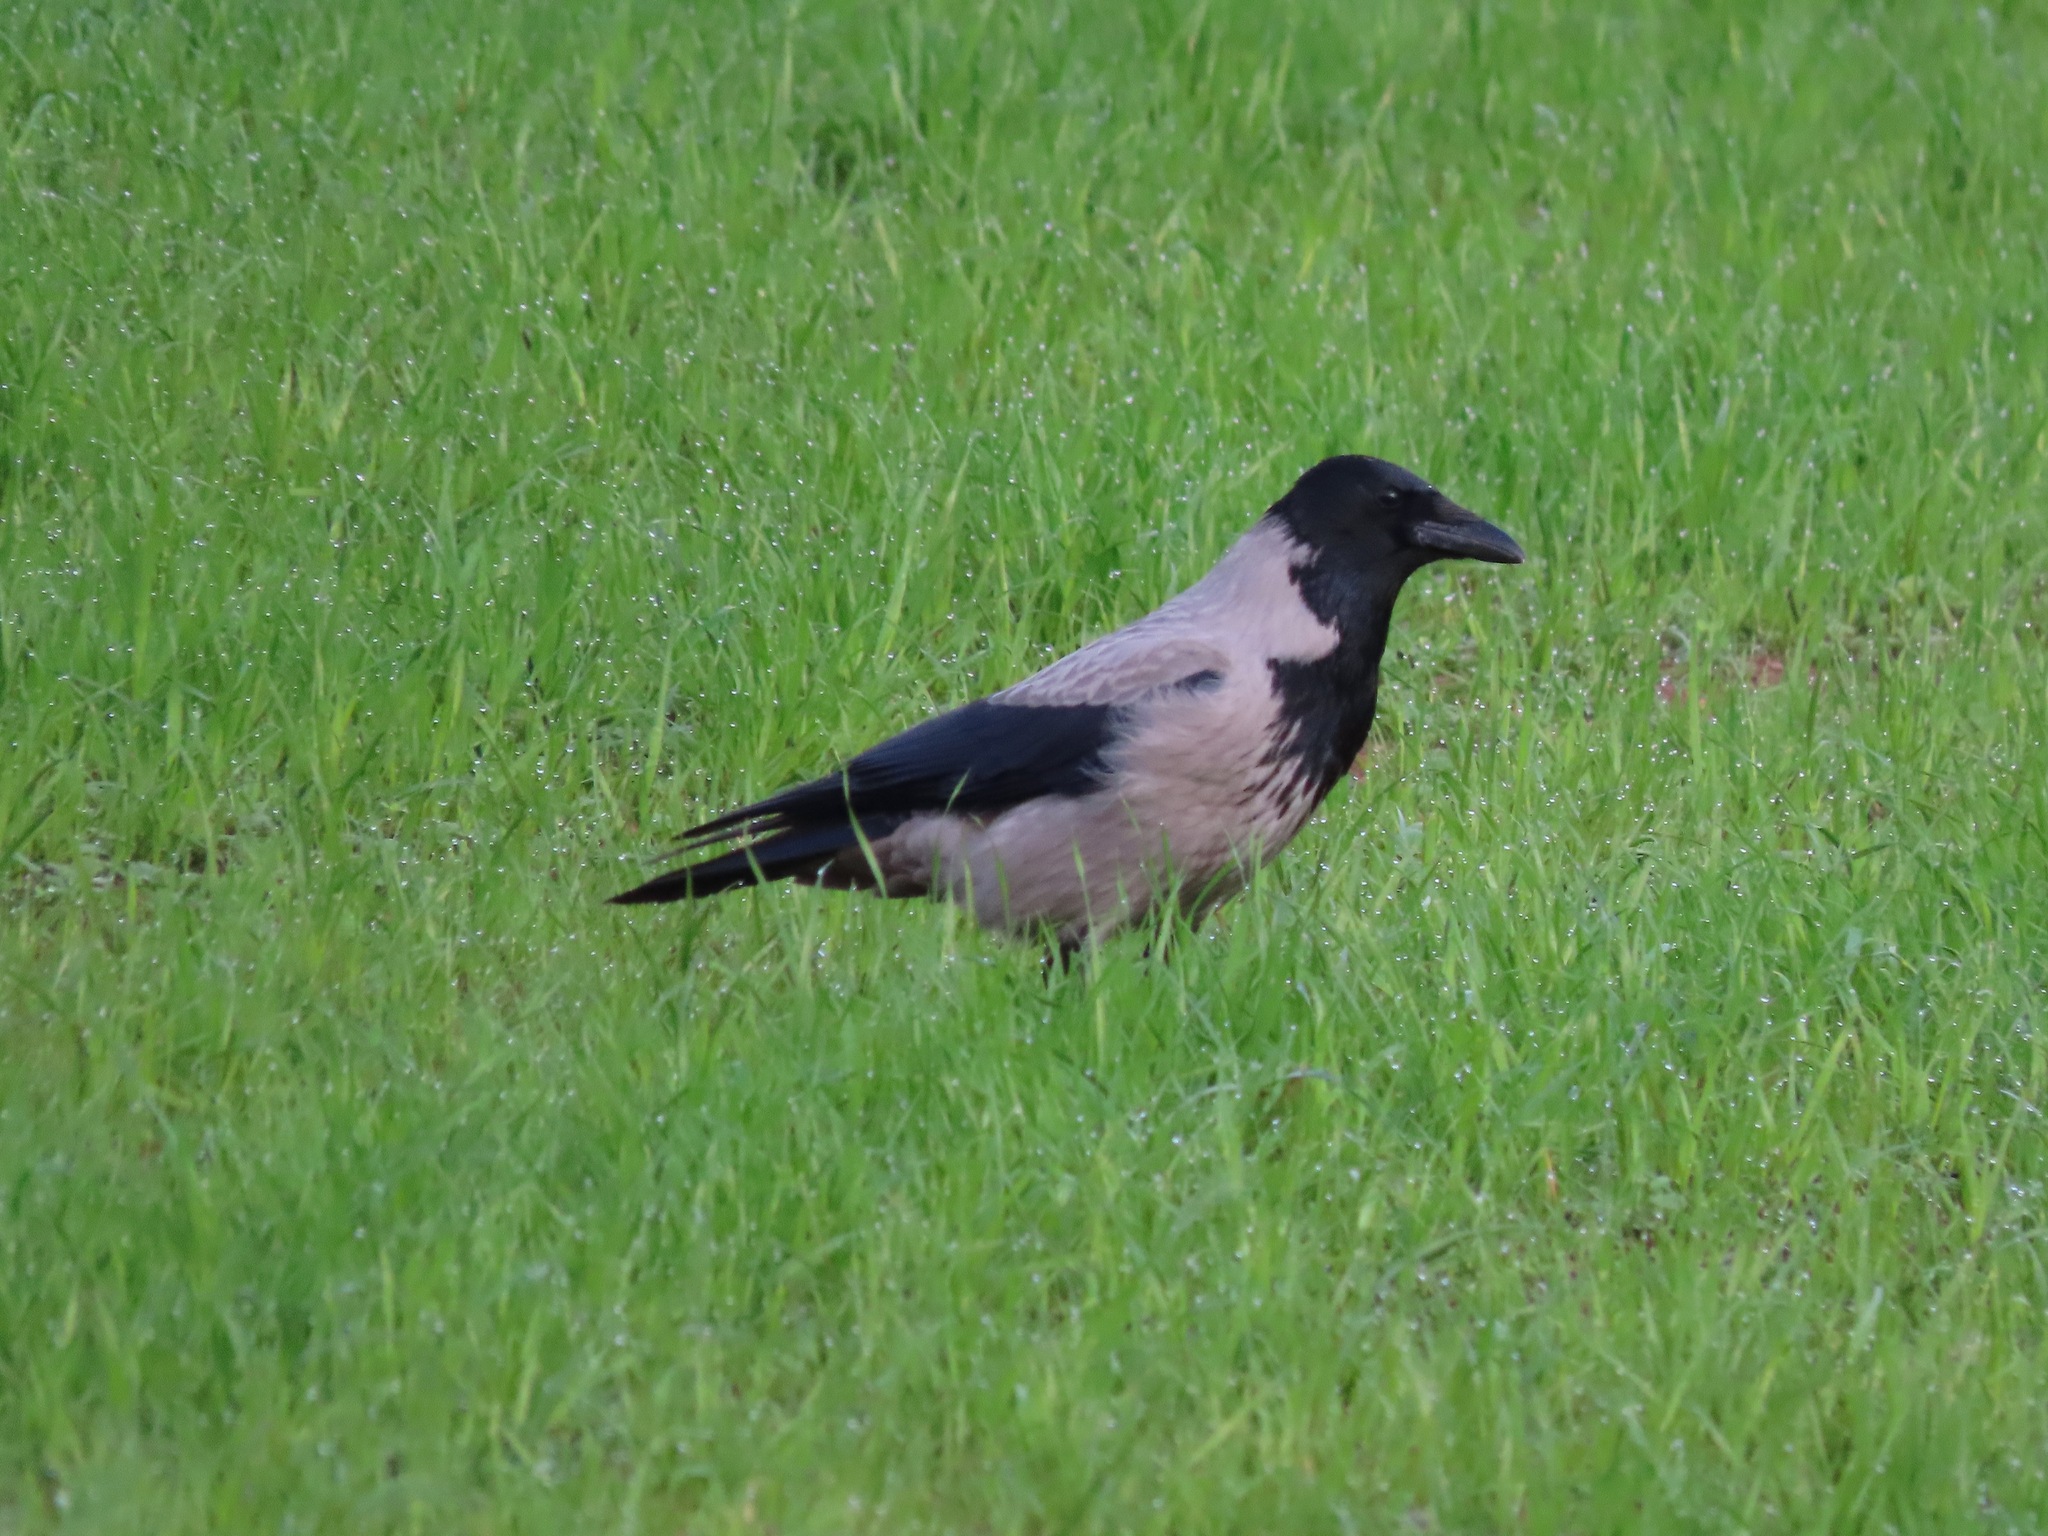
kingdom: Animalia
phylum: Chordata
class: Aves
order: Passeriformes
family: Corvidae
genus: Corvus
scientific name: Corvus cornix
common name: Hooded crow
